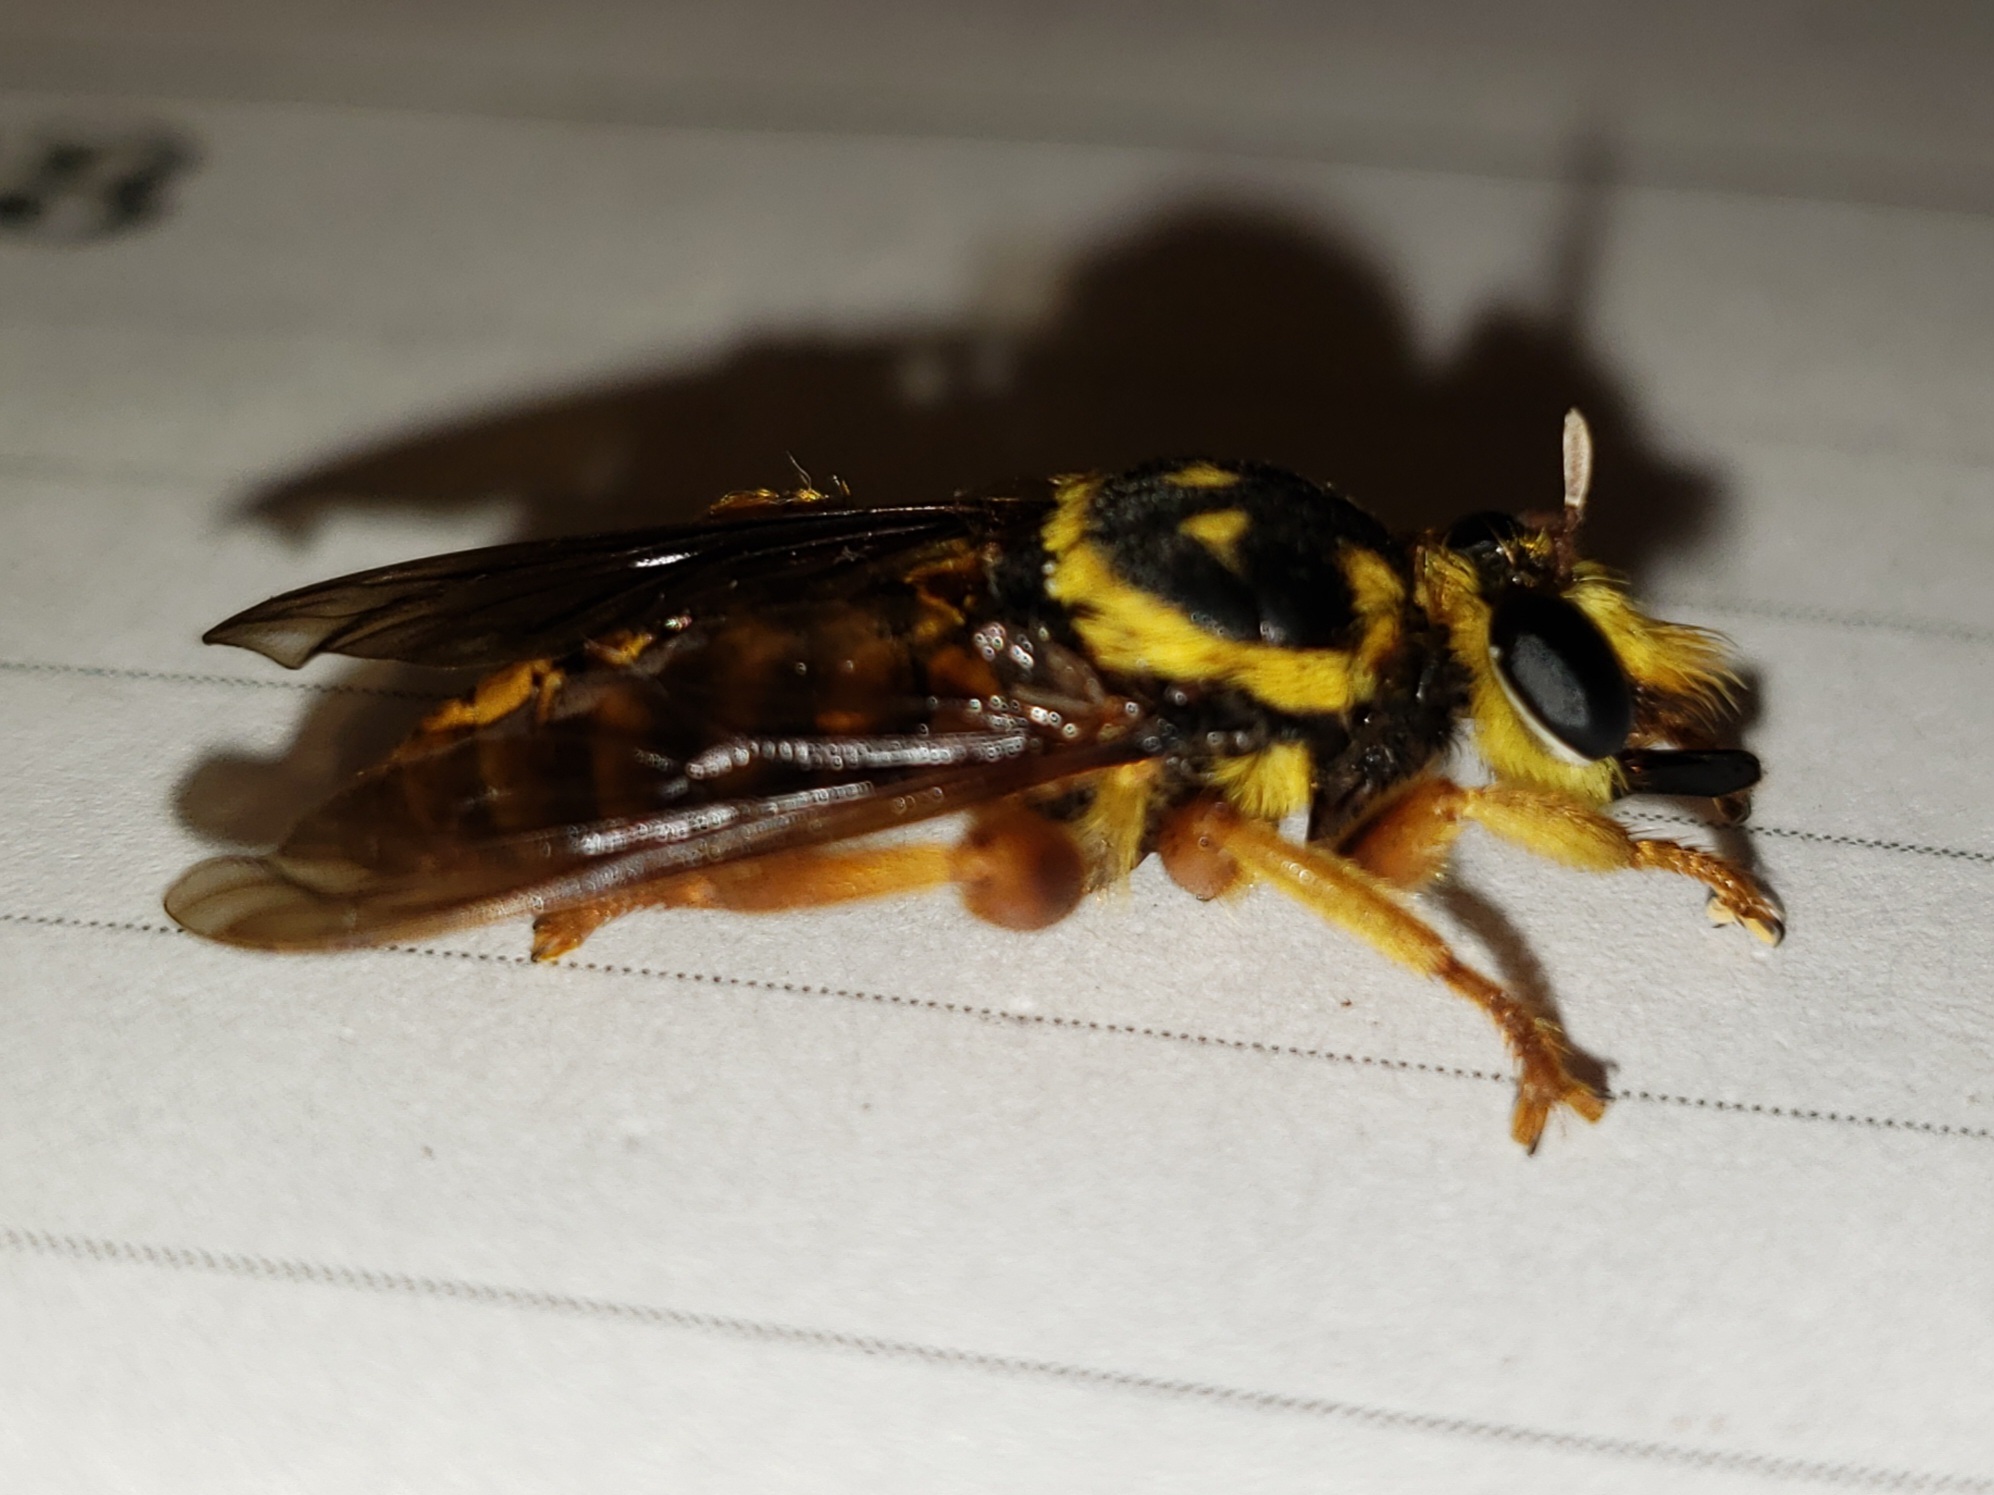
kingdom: Animalia
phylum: Arthropoda
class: Insecta
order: Diptera
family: Asilidae
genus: Laphria
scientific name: Laphria saffrana
